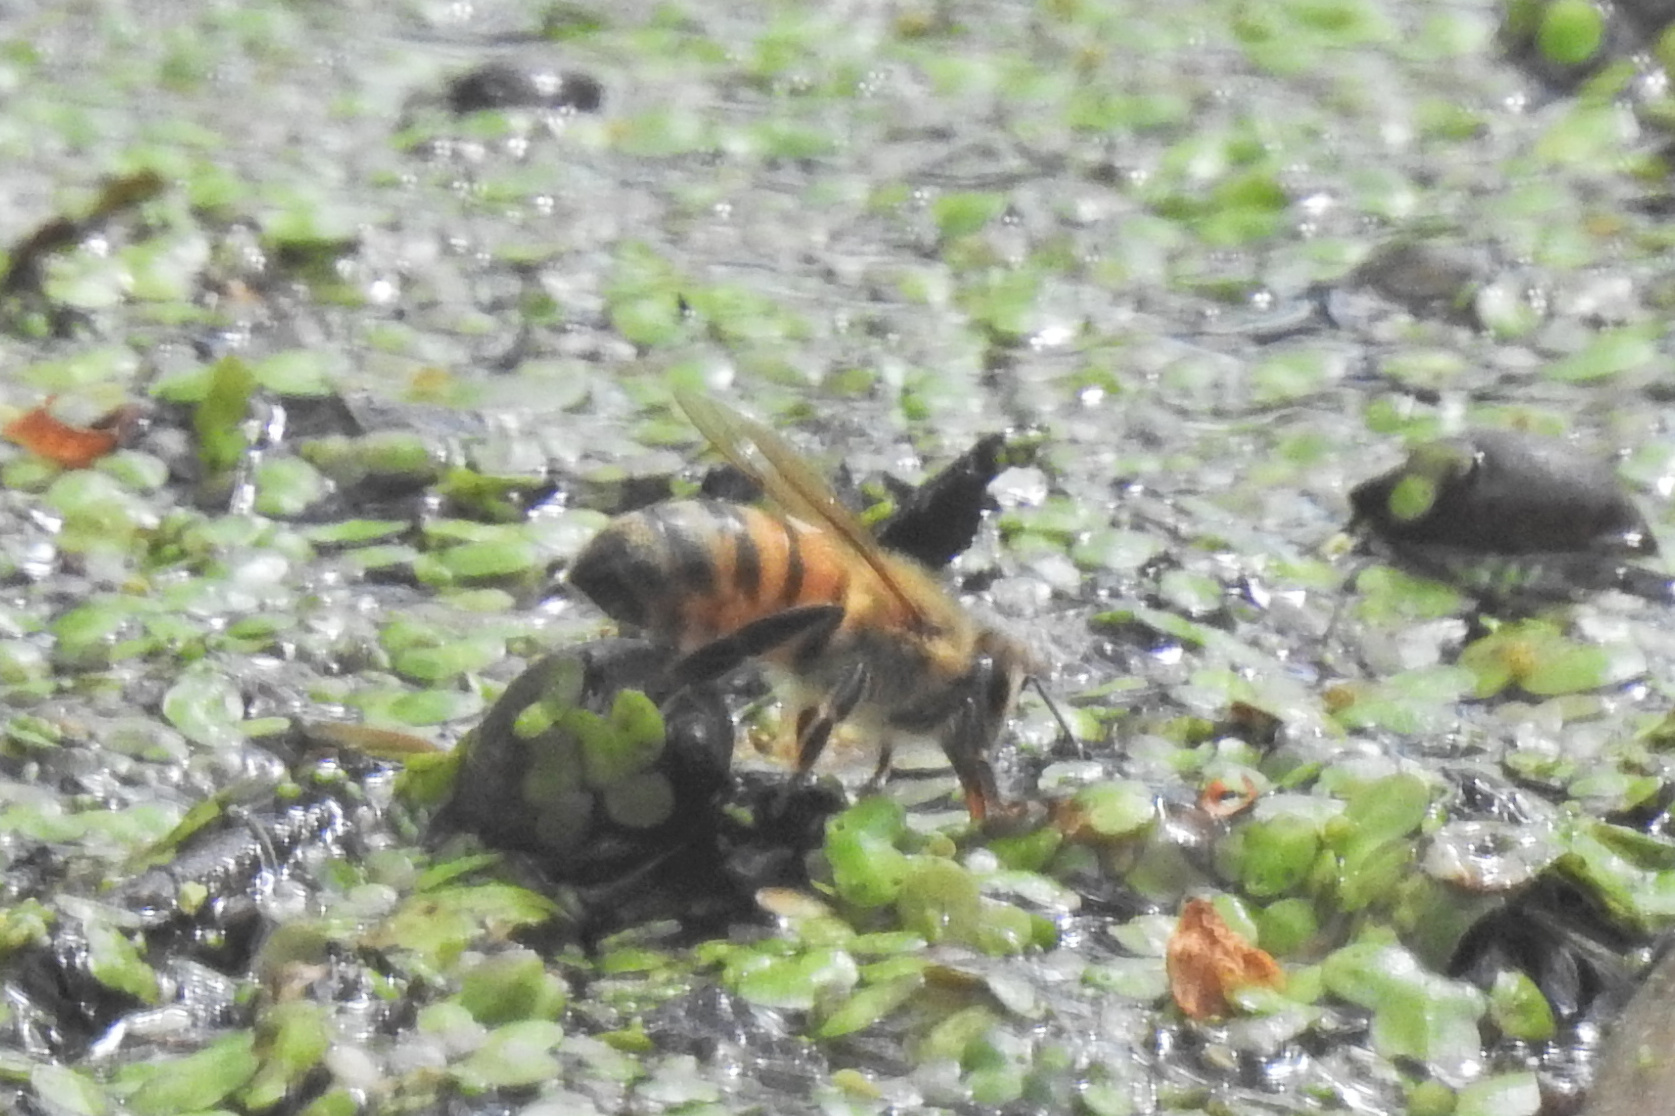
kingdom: Animalia
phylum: Arthropoda
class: Insecta
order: Hymenoptera
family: Apidae
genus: Apis
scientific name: Apis mellifera
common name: Honey bee
